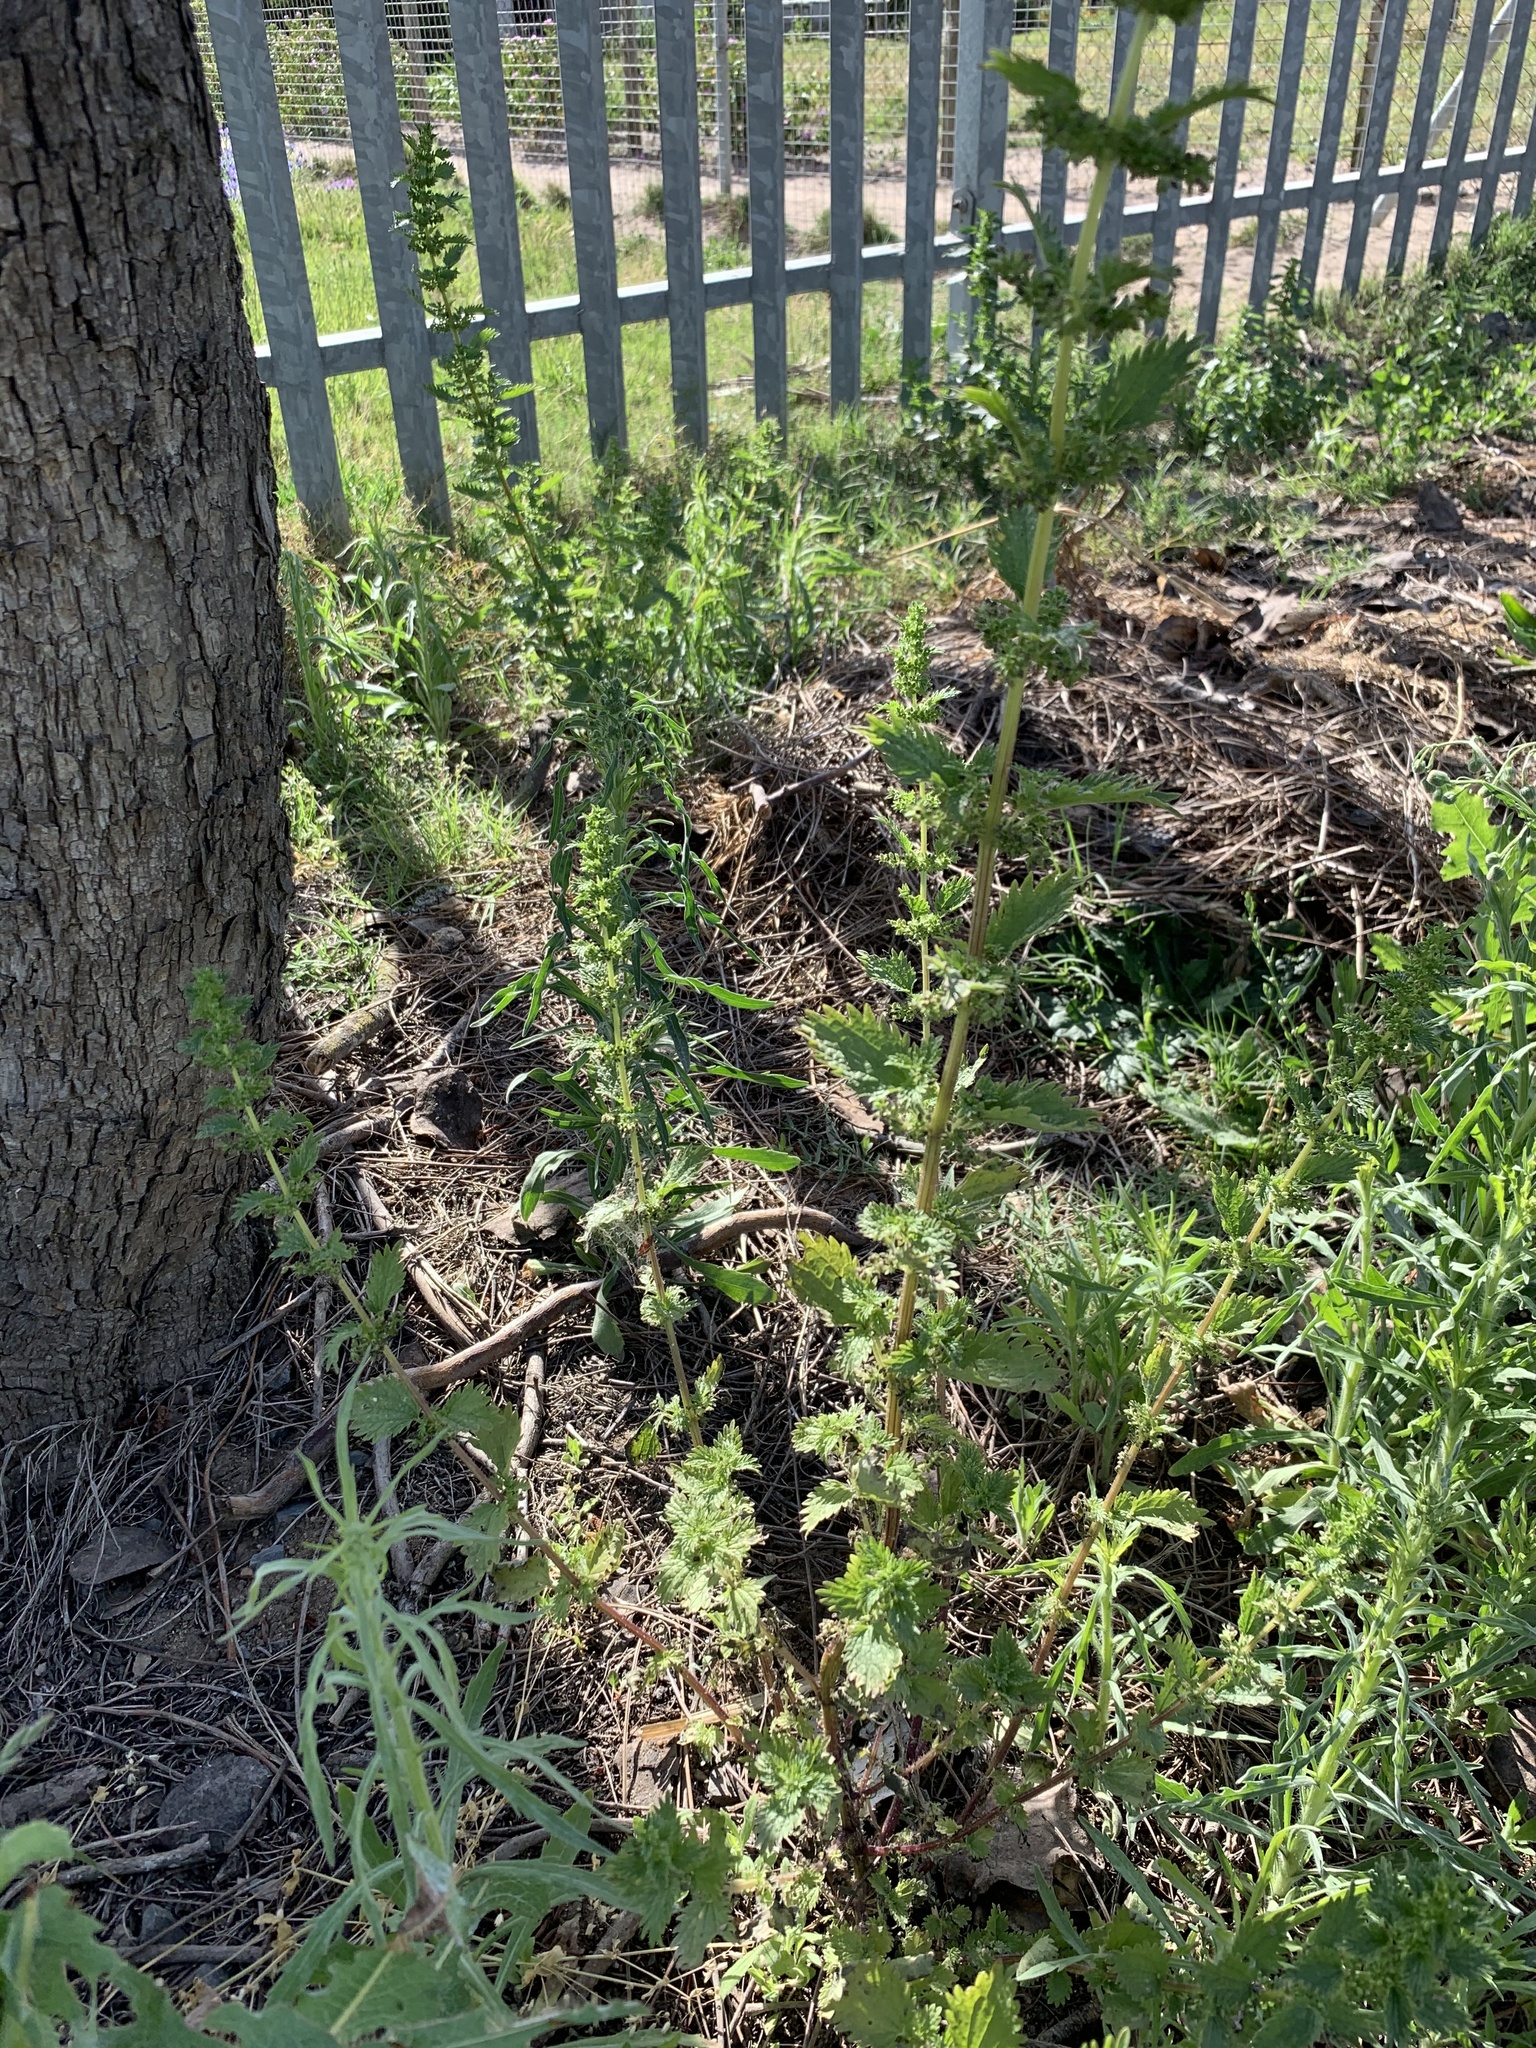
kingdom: Plantae
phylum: Tracheophyta
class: Magnoliopsida
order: Rosales
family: Urticaceae
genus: Urtica
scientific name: Urtica urens
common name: Dwarf nettle
